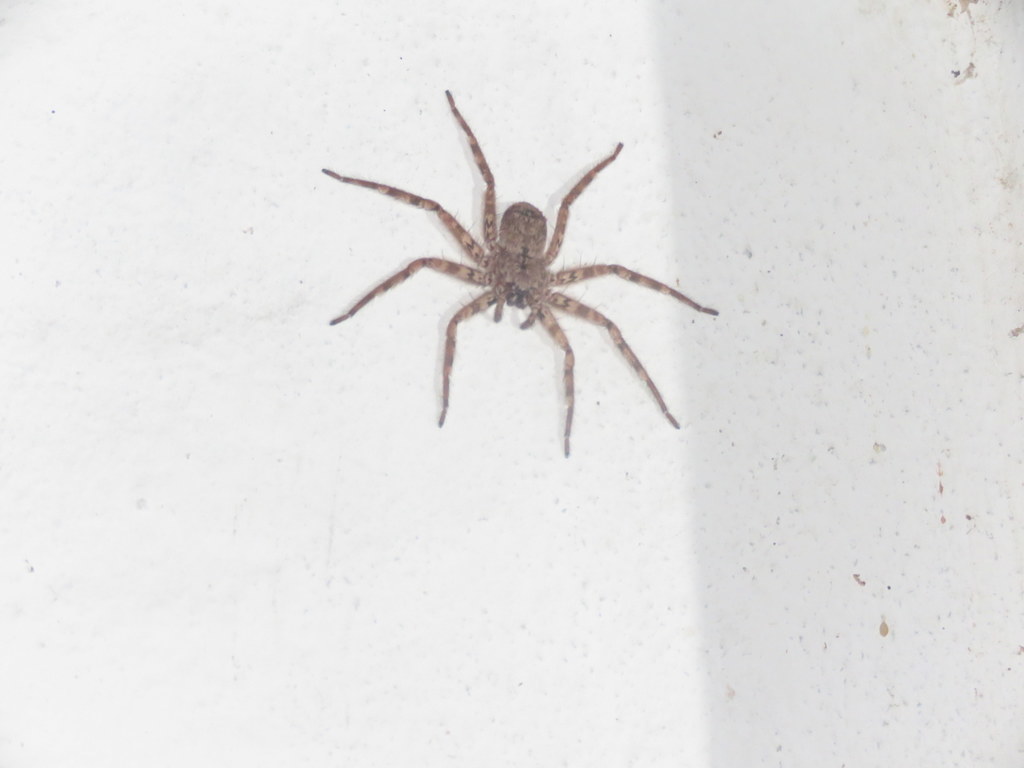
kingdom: Animalia
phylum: Arthropoda
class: Arachnida
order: Araneae
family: Selenopidae
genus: Selenops
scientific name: Selenops
